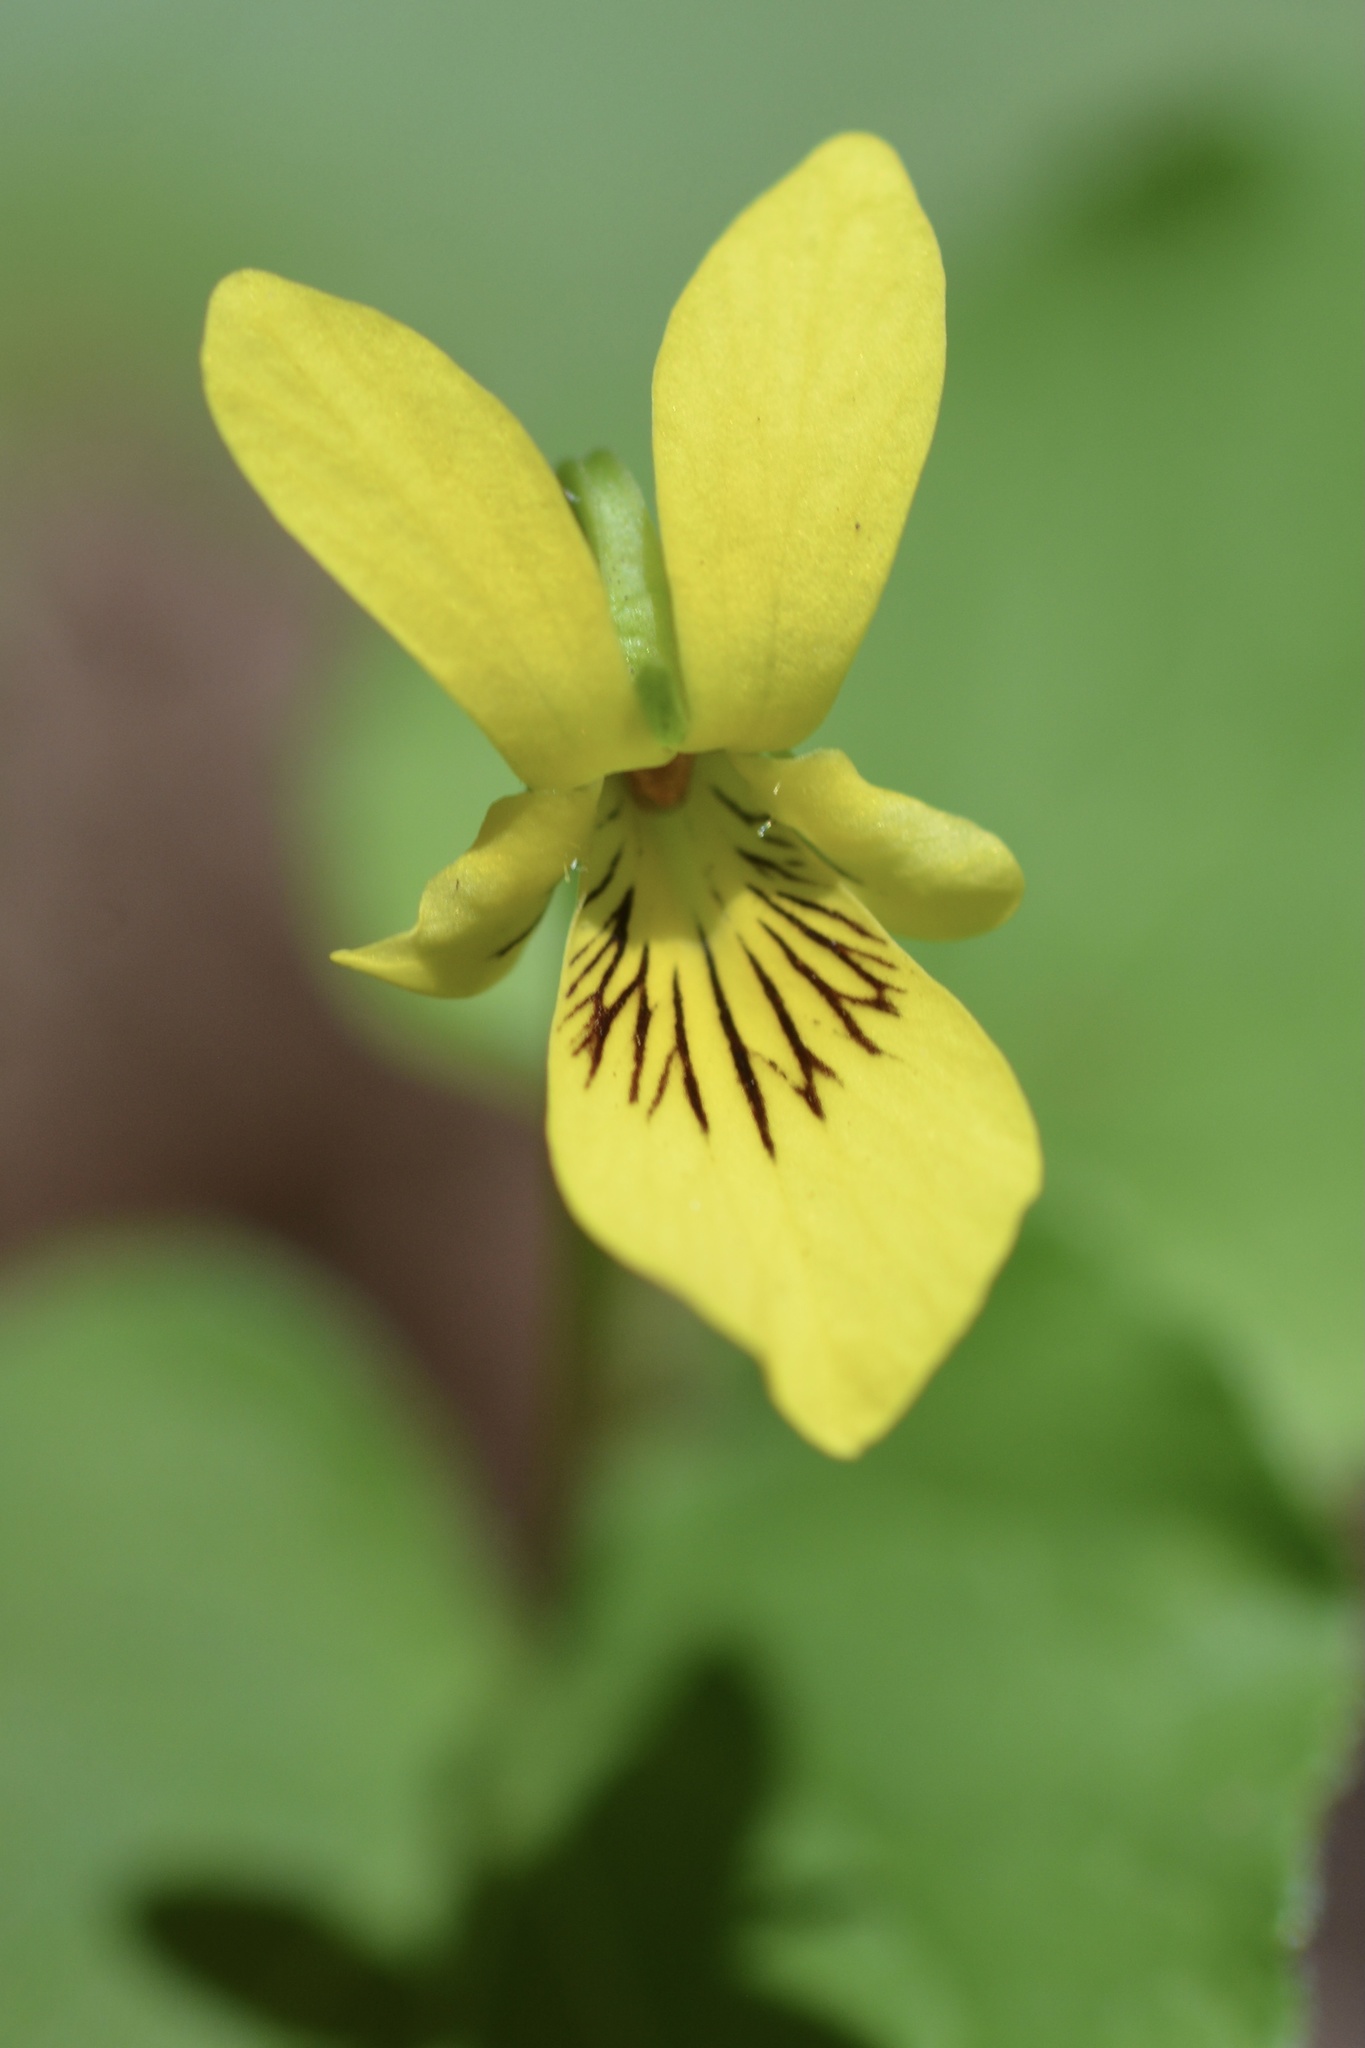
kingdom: Plantae
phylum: Tracheophyta
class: Magnoliopsida
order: Malpighiales
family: Violaceae
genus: Viola
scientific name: Viola glabella
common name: Stream violet
